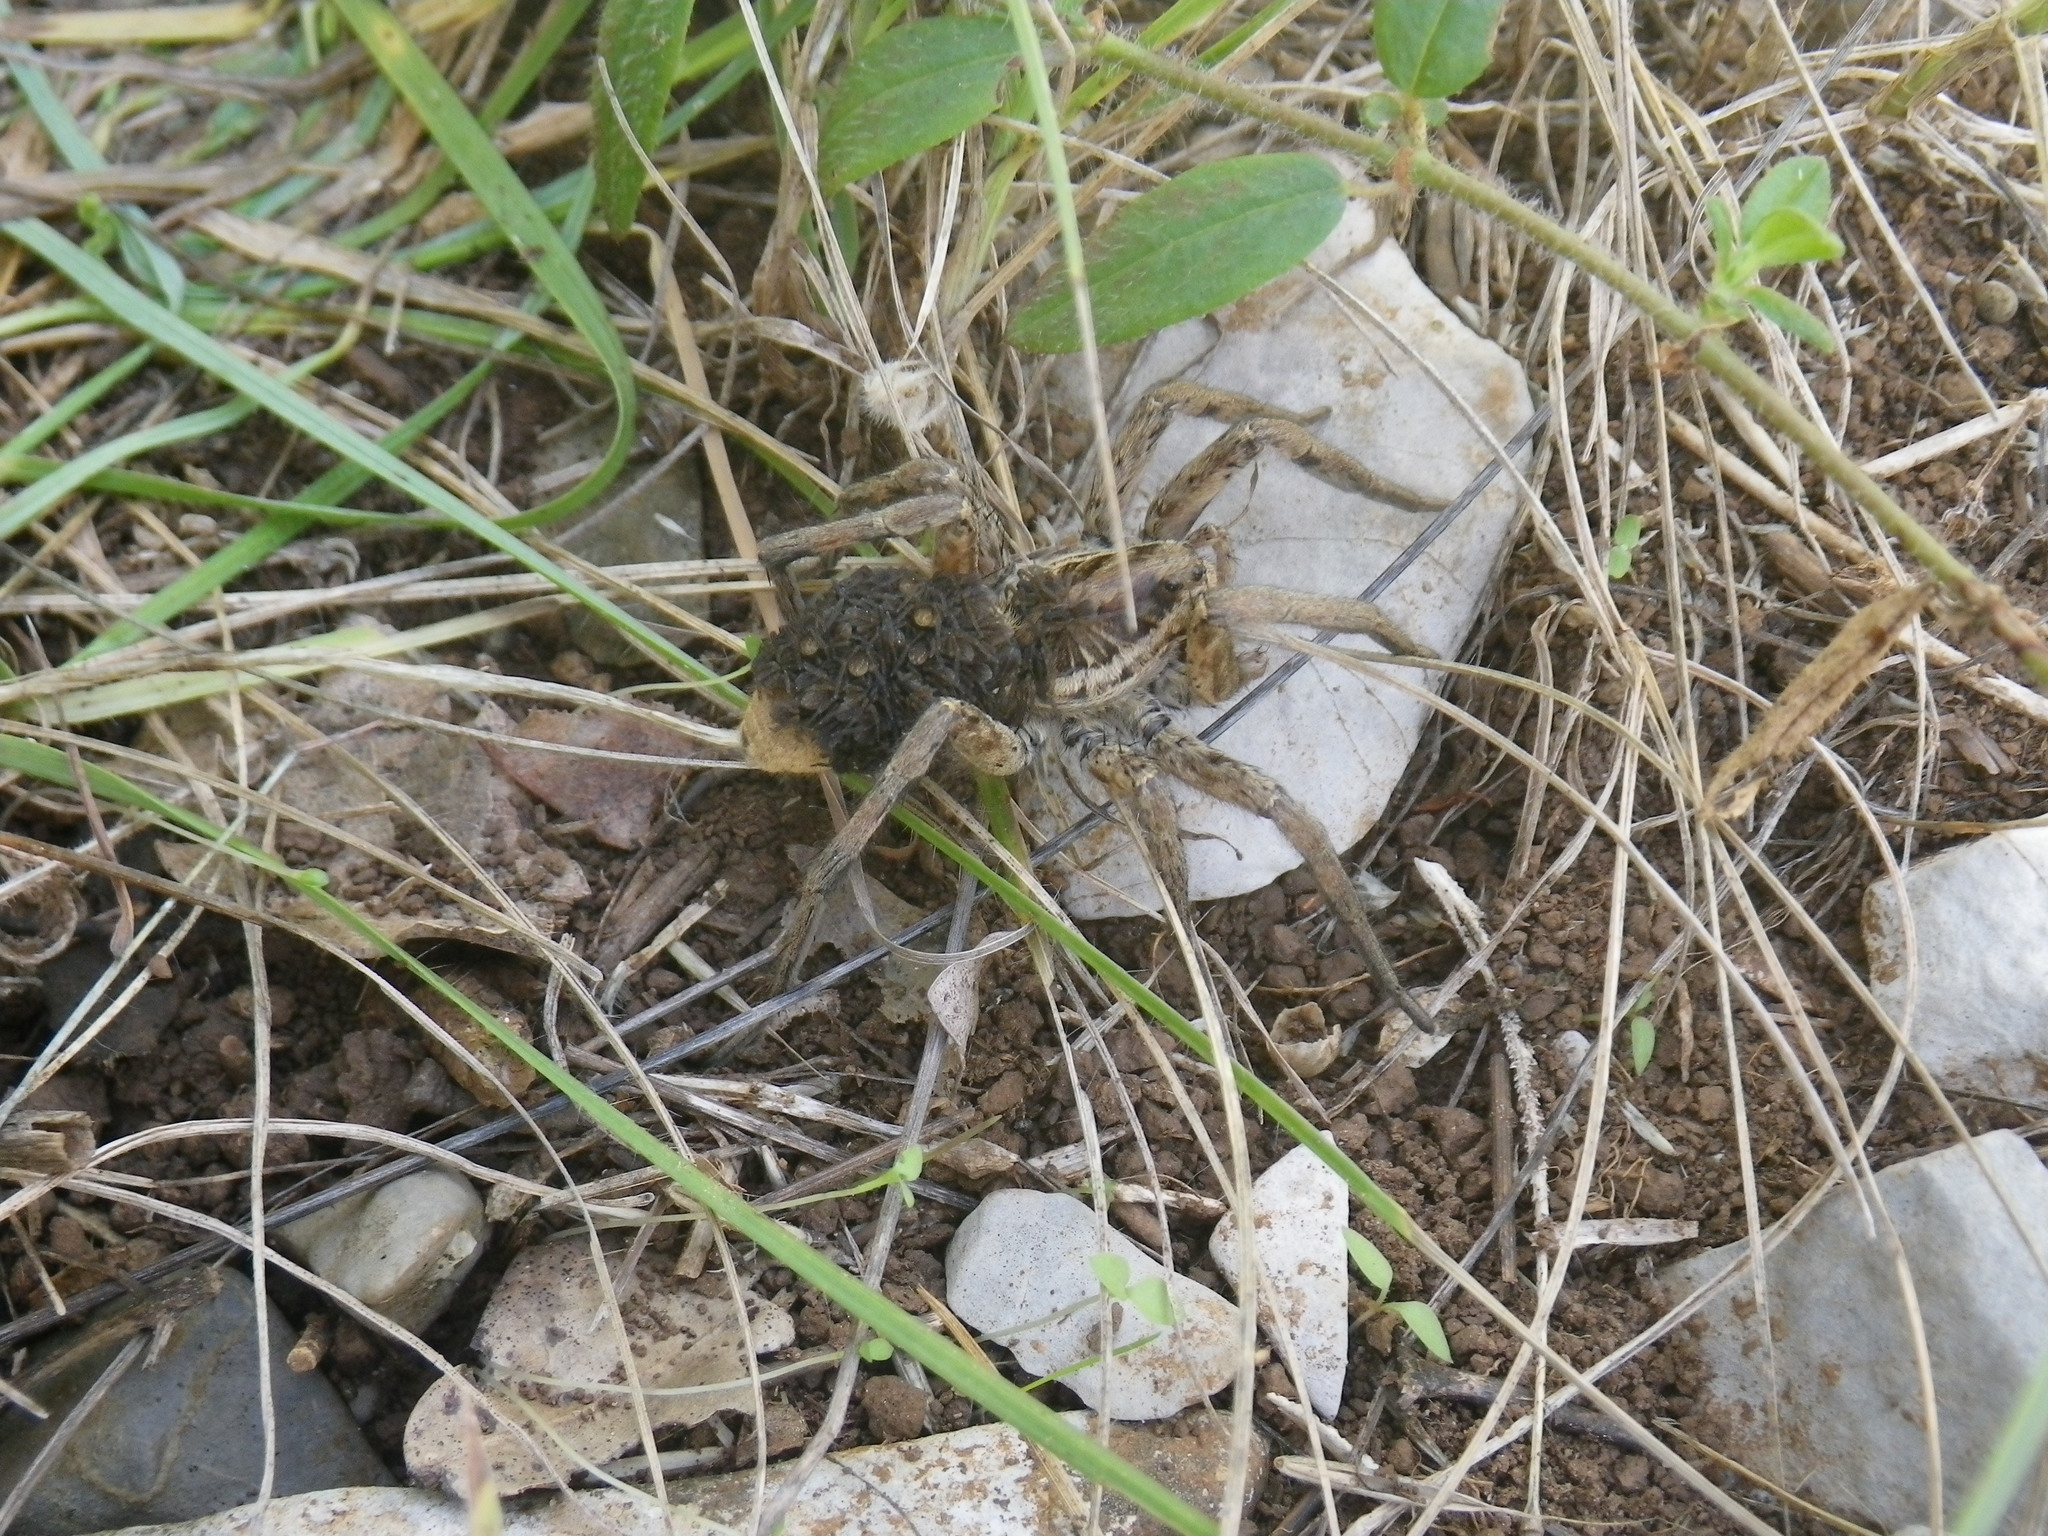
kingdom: Animalia
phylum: Arthropoda
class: Arachnida
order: Araneae
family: Lycosidae
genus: Hogna
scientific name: Hogna radiata
